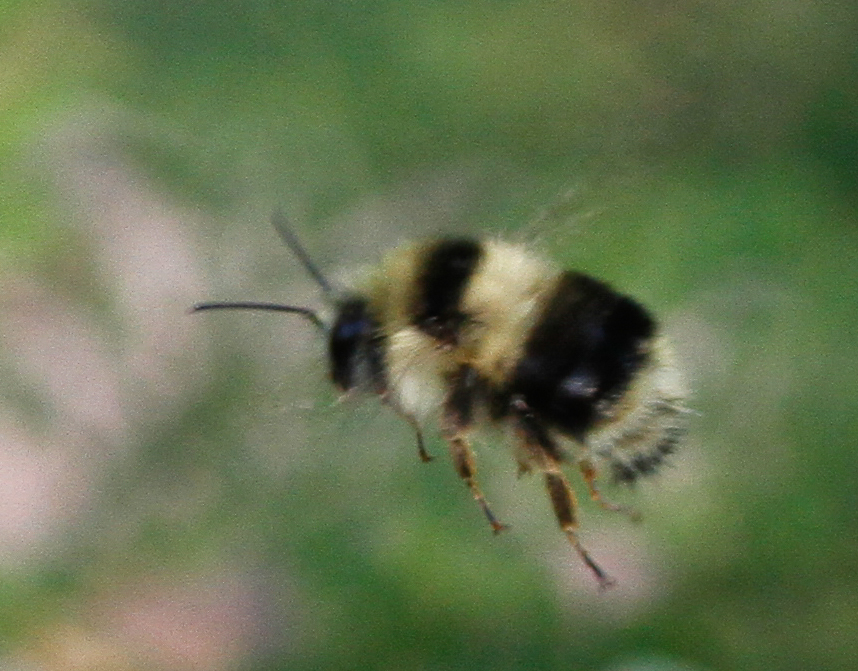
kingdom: Animalia
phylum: Arthropoda
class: Insecta
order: Hymenoptera
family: Apidae
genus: Bombus
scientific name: Bombus melanopygus
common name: Black tail bumble bee
